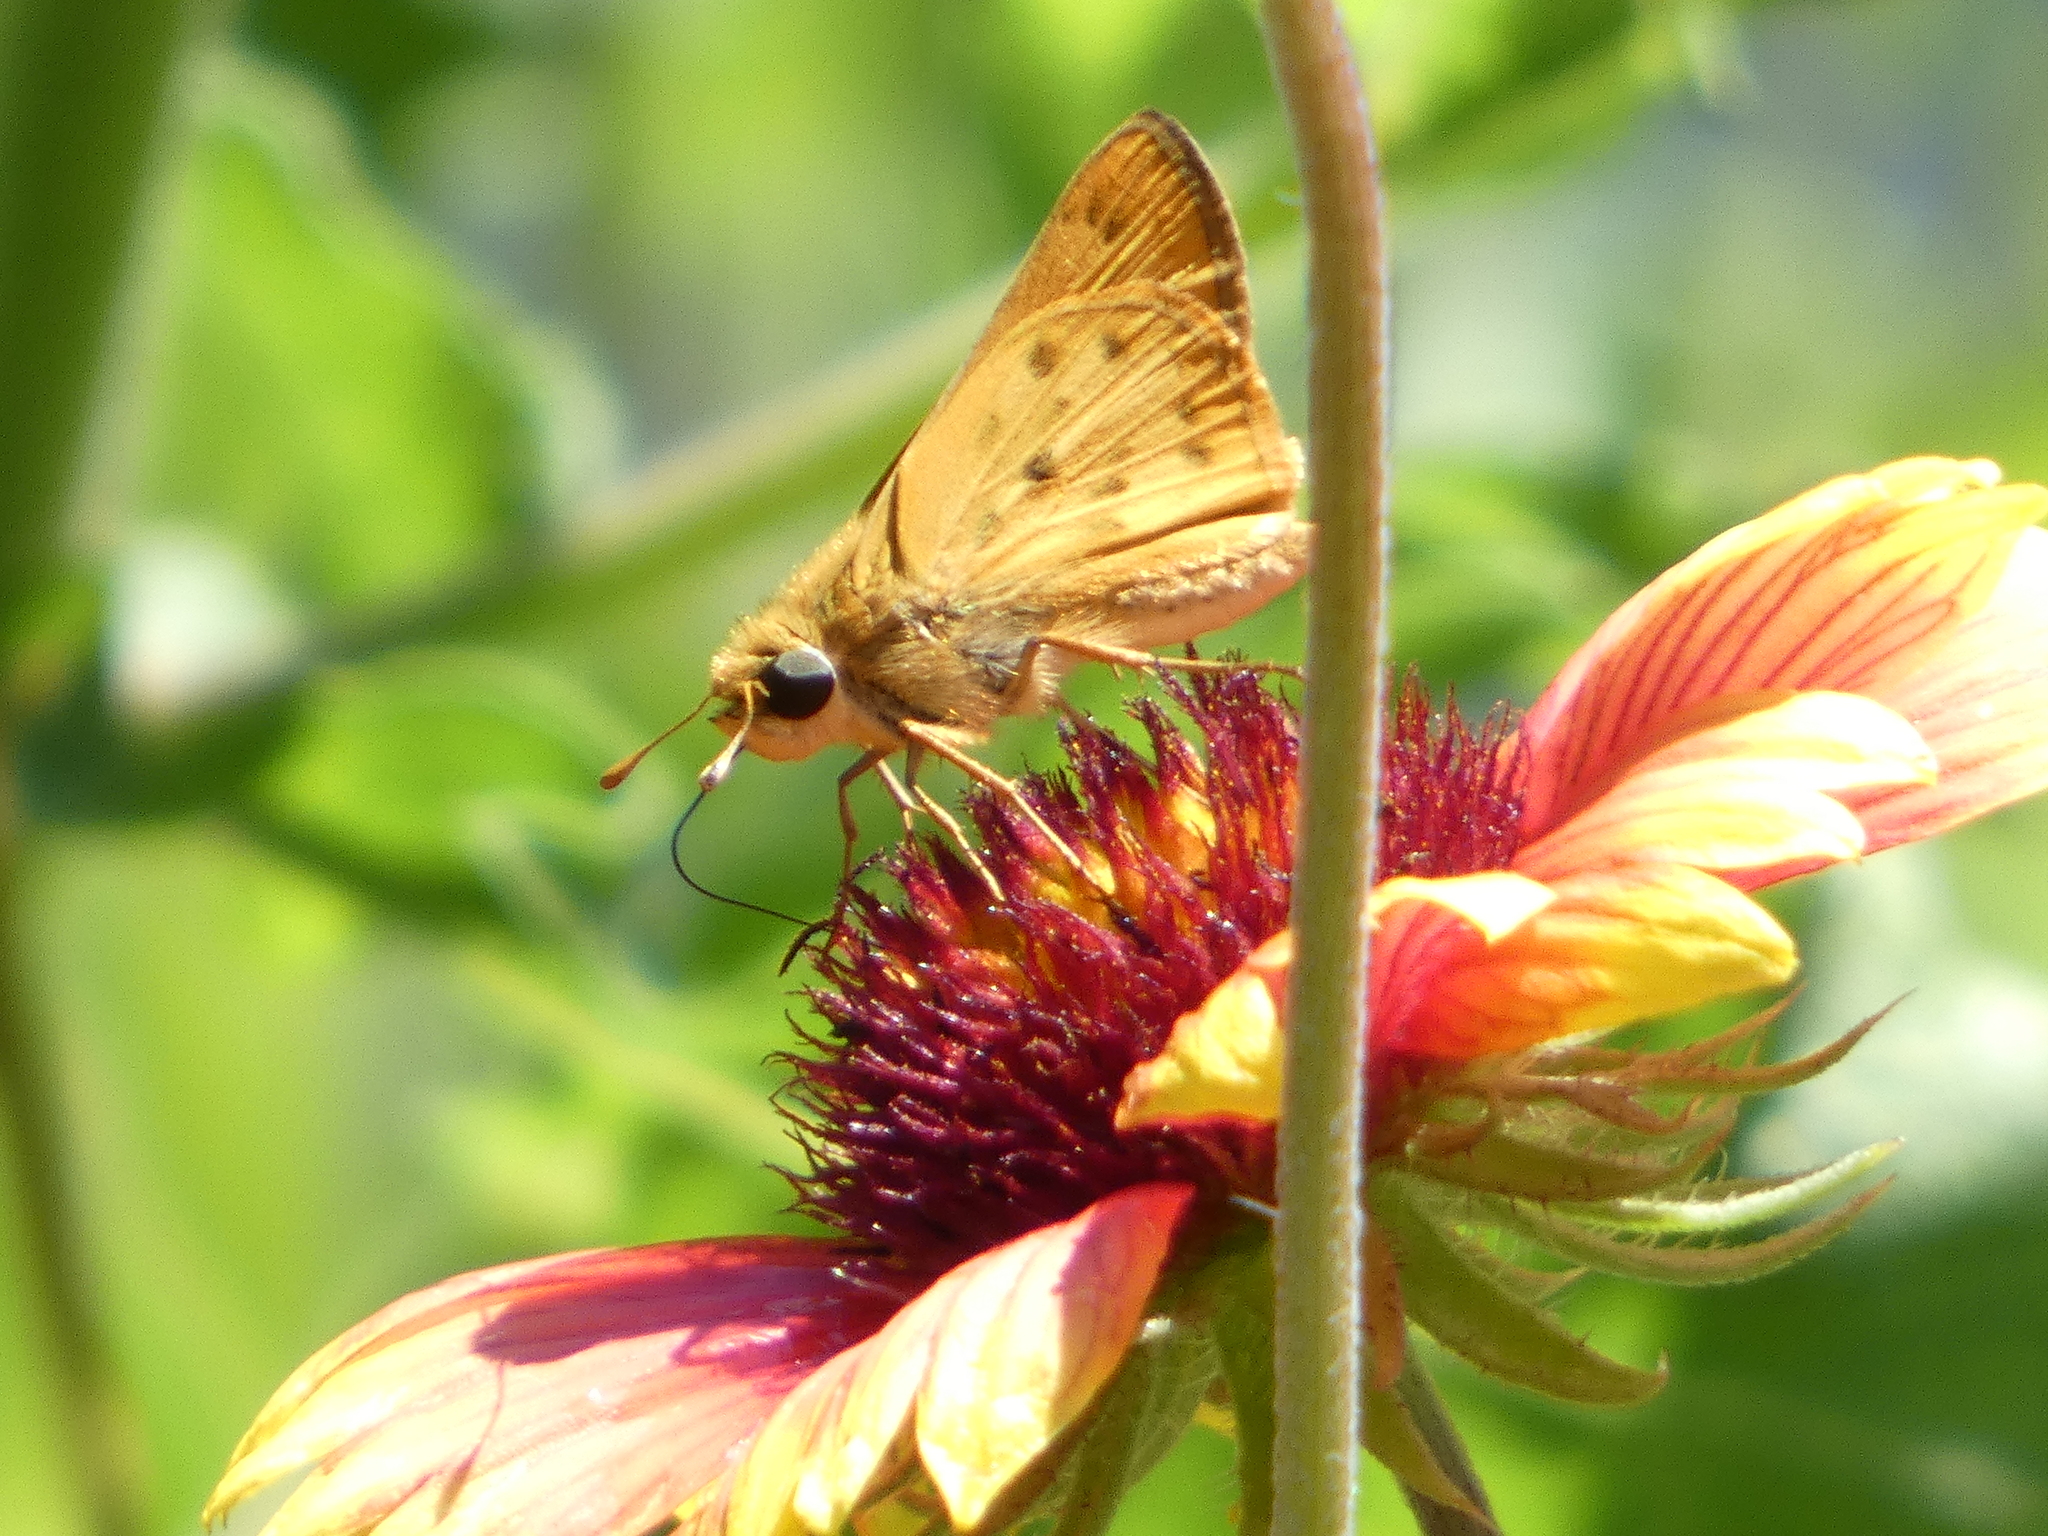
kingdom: Animalia
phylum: Arthropoda
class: Insecta
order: Lepidoptera
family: Hesperiidae
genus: Hylephila
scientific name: Hylephila phyleus
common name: Fiery skipper
